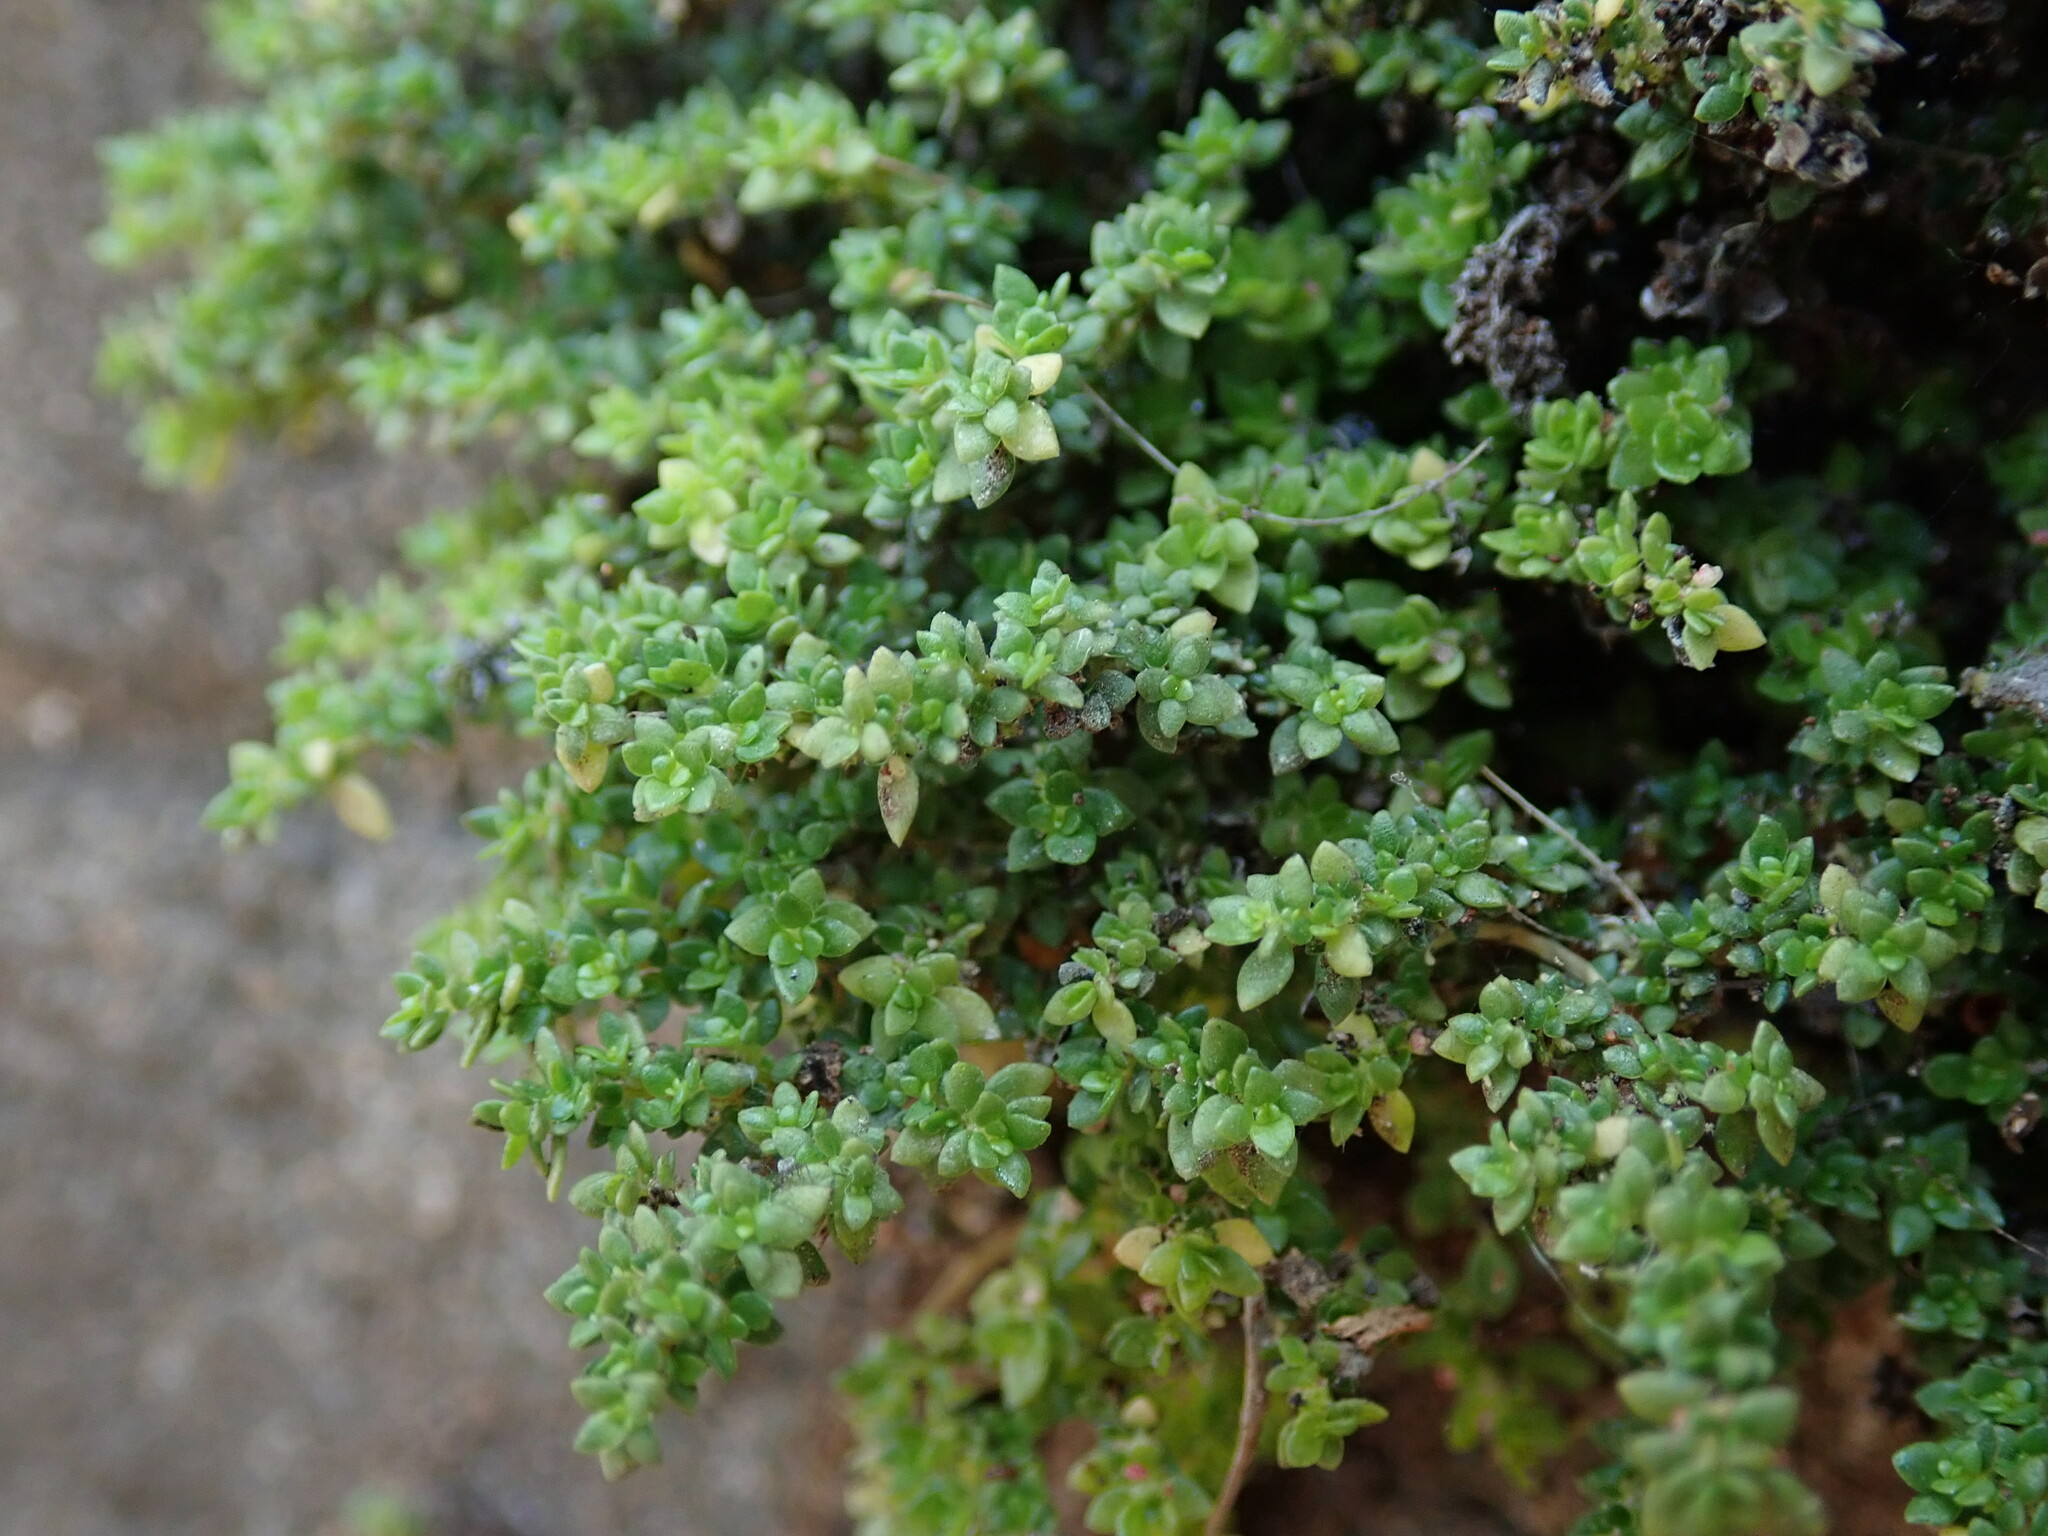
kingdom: Plantae
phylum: Tracheophyta
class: Magnoliopsida
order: Rosales
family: Urticaceae
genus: Pilea
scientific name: Pilea microphylla
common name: Artillery-plant
